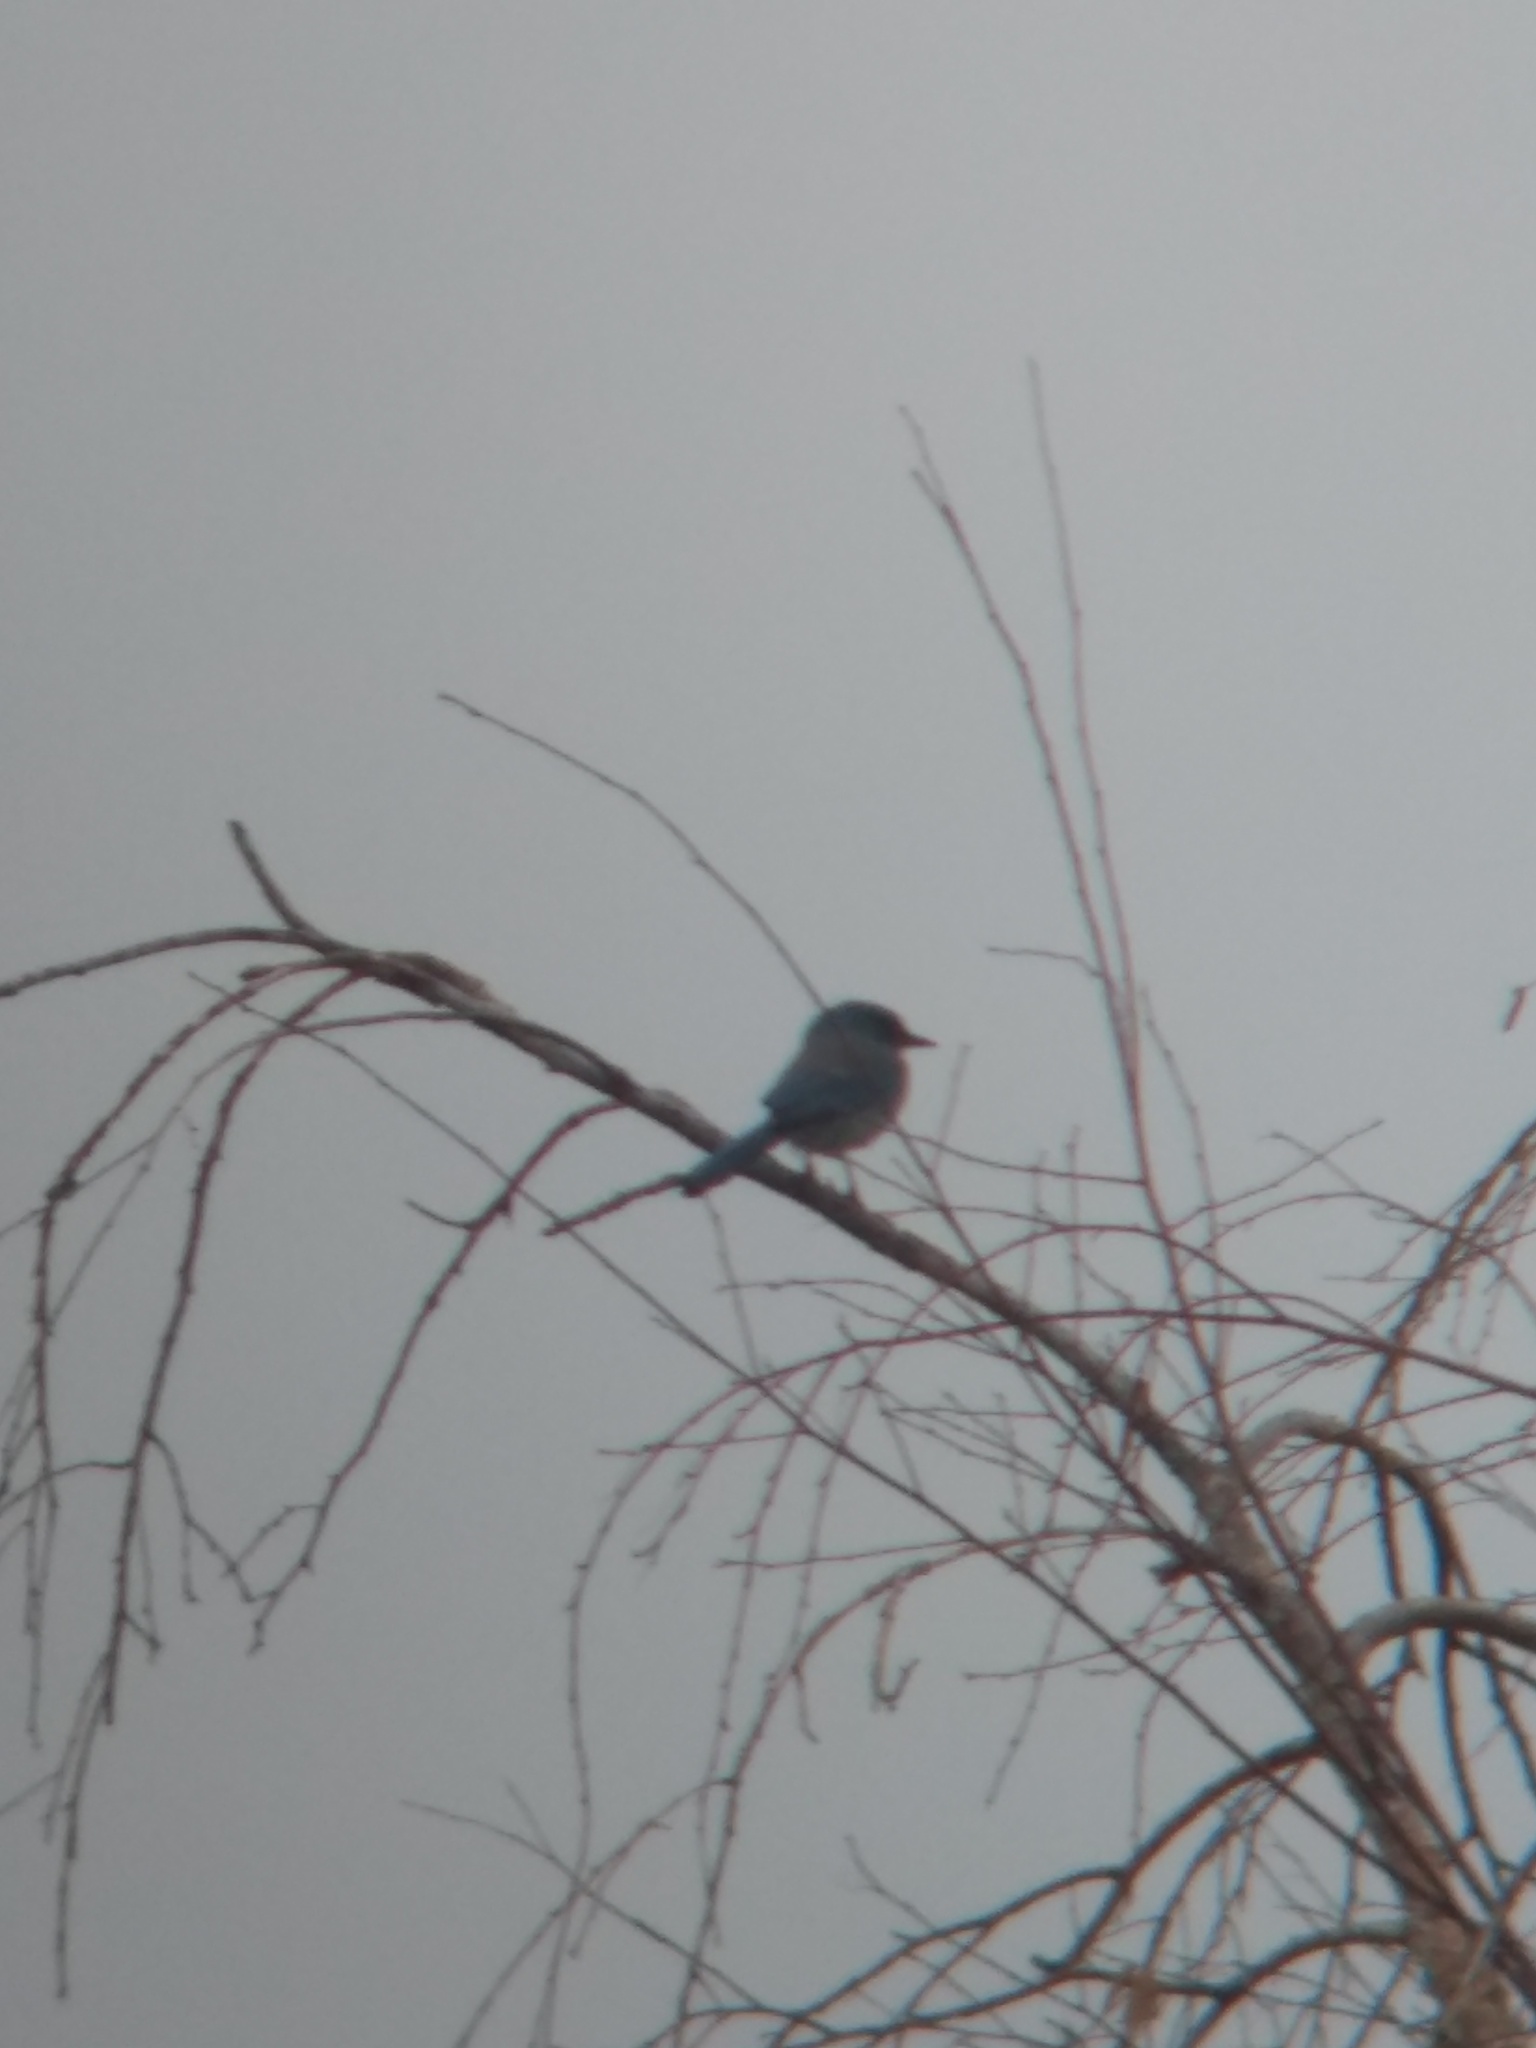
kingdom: Animalia
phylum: Chordata
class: Aves
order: Passeriformes
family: Corvidae
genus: Aphelocoma
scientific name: Aphelocoma woodhouseii
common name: Woodhouse's scrub-jay
